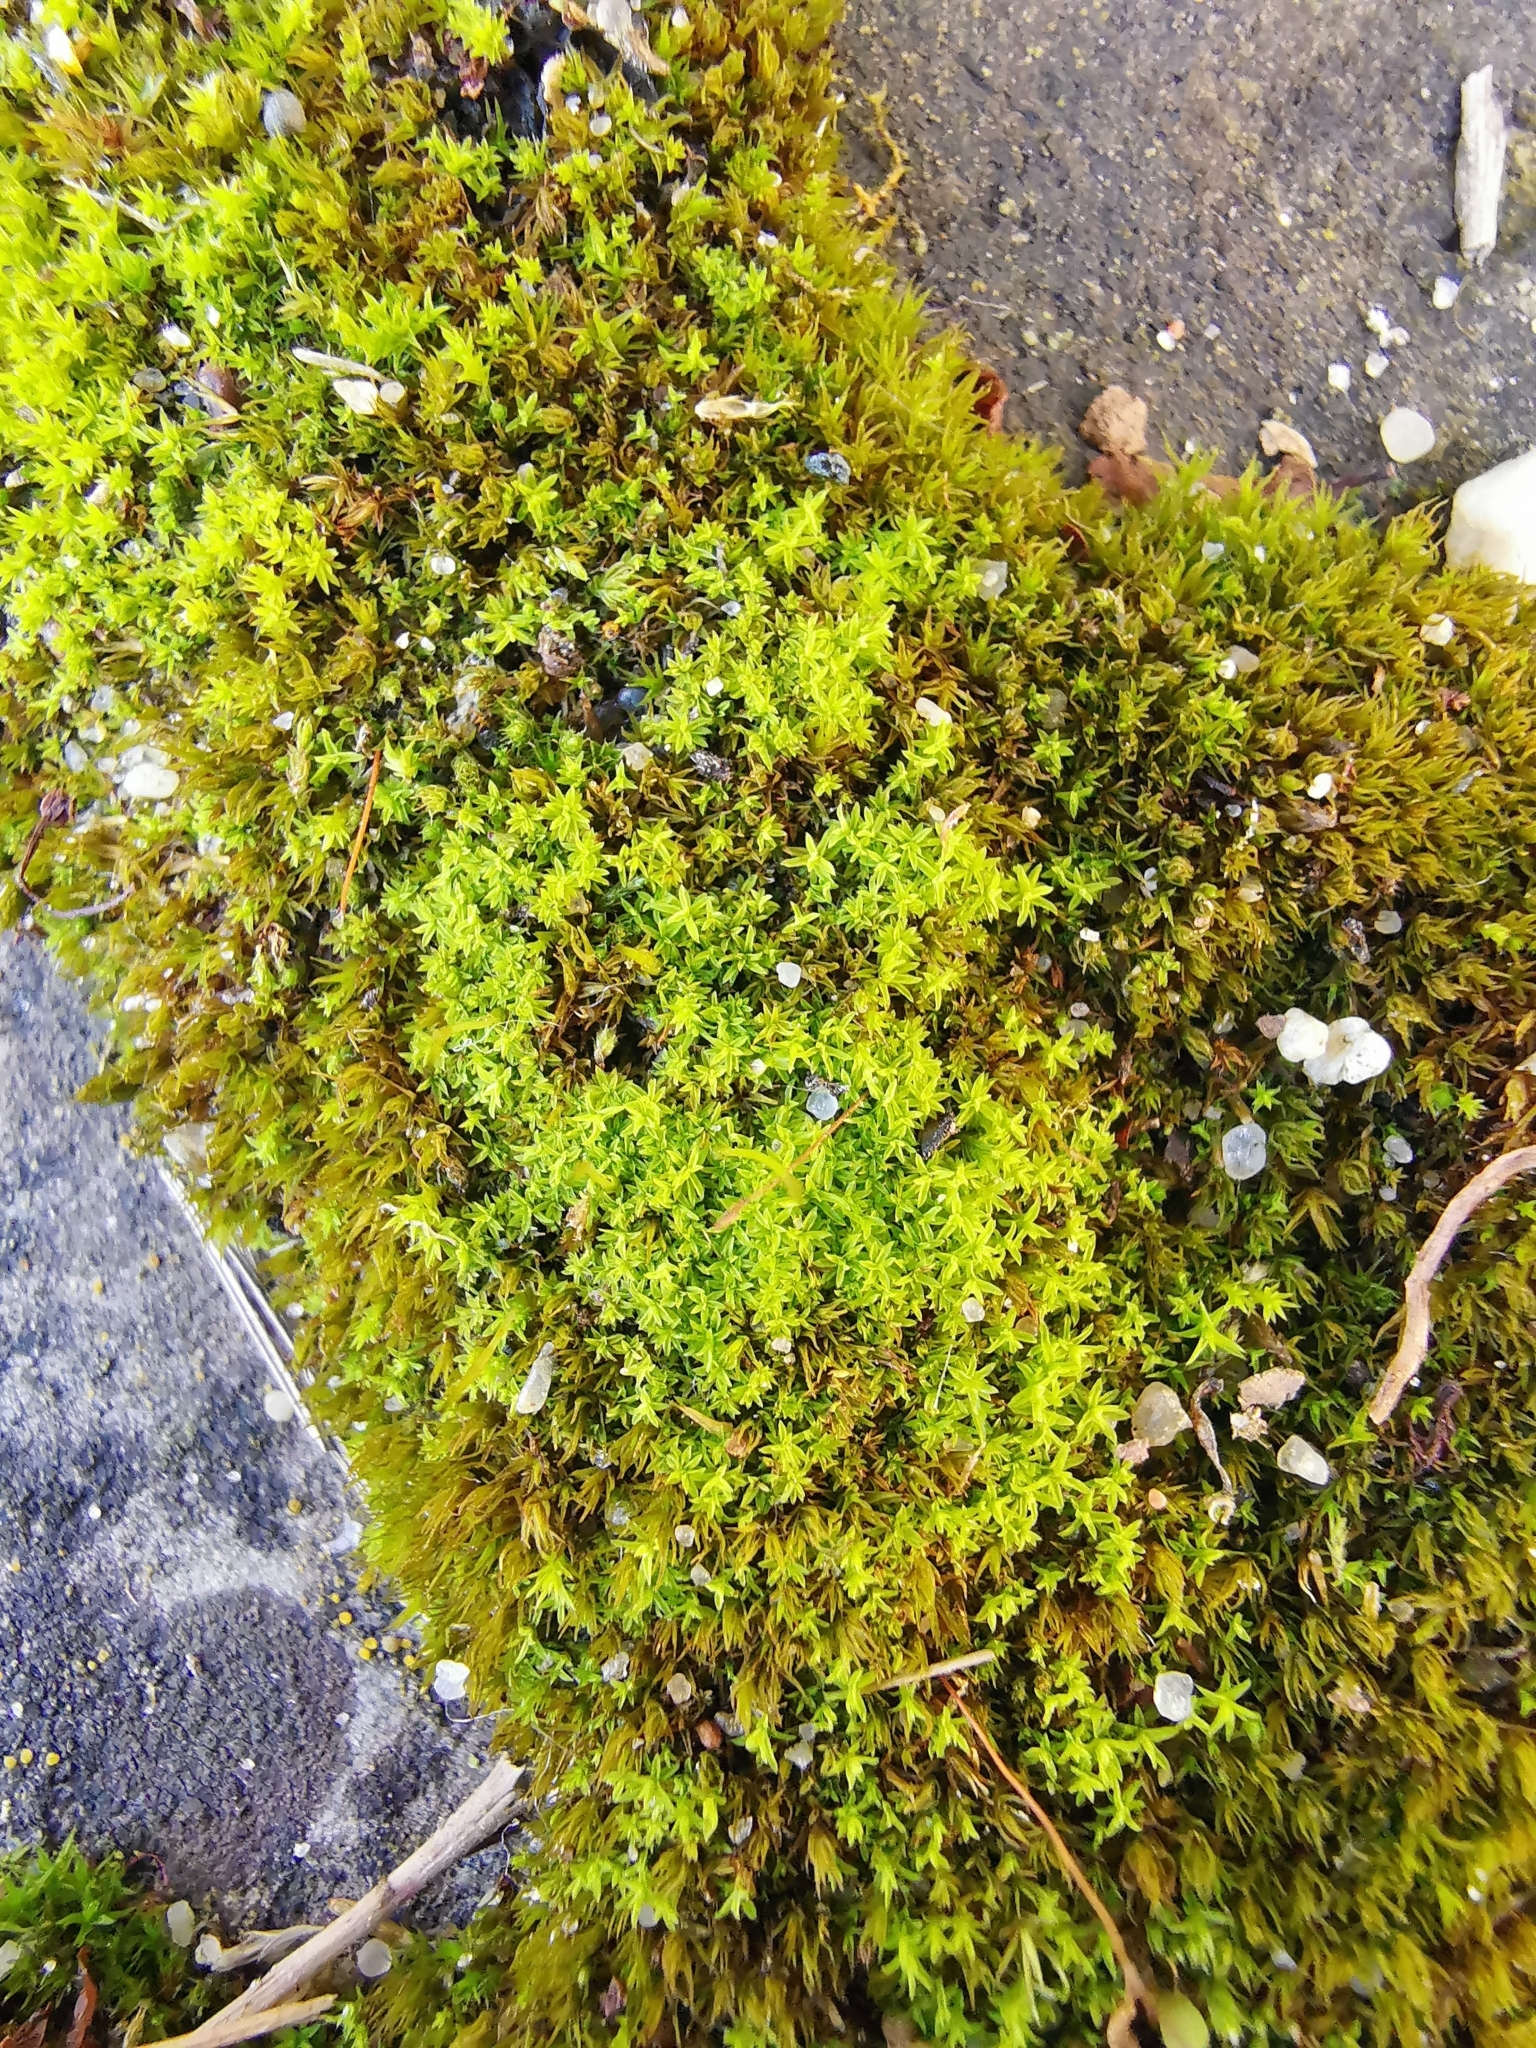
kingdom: Plantae
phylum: Bryophyta
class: Bryopsida
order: Pottiales
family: Pottiaceae
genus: Barbula
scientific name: Barbula unguiculata
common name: Prickly beard moss
